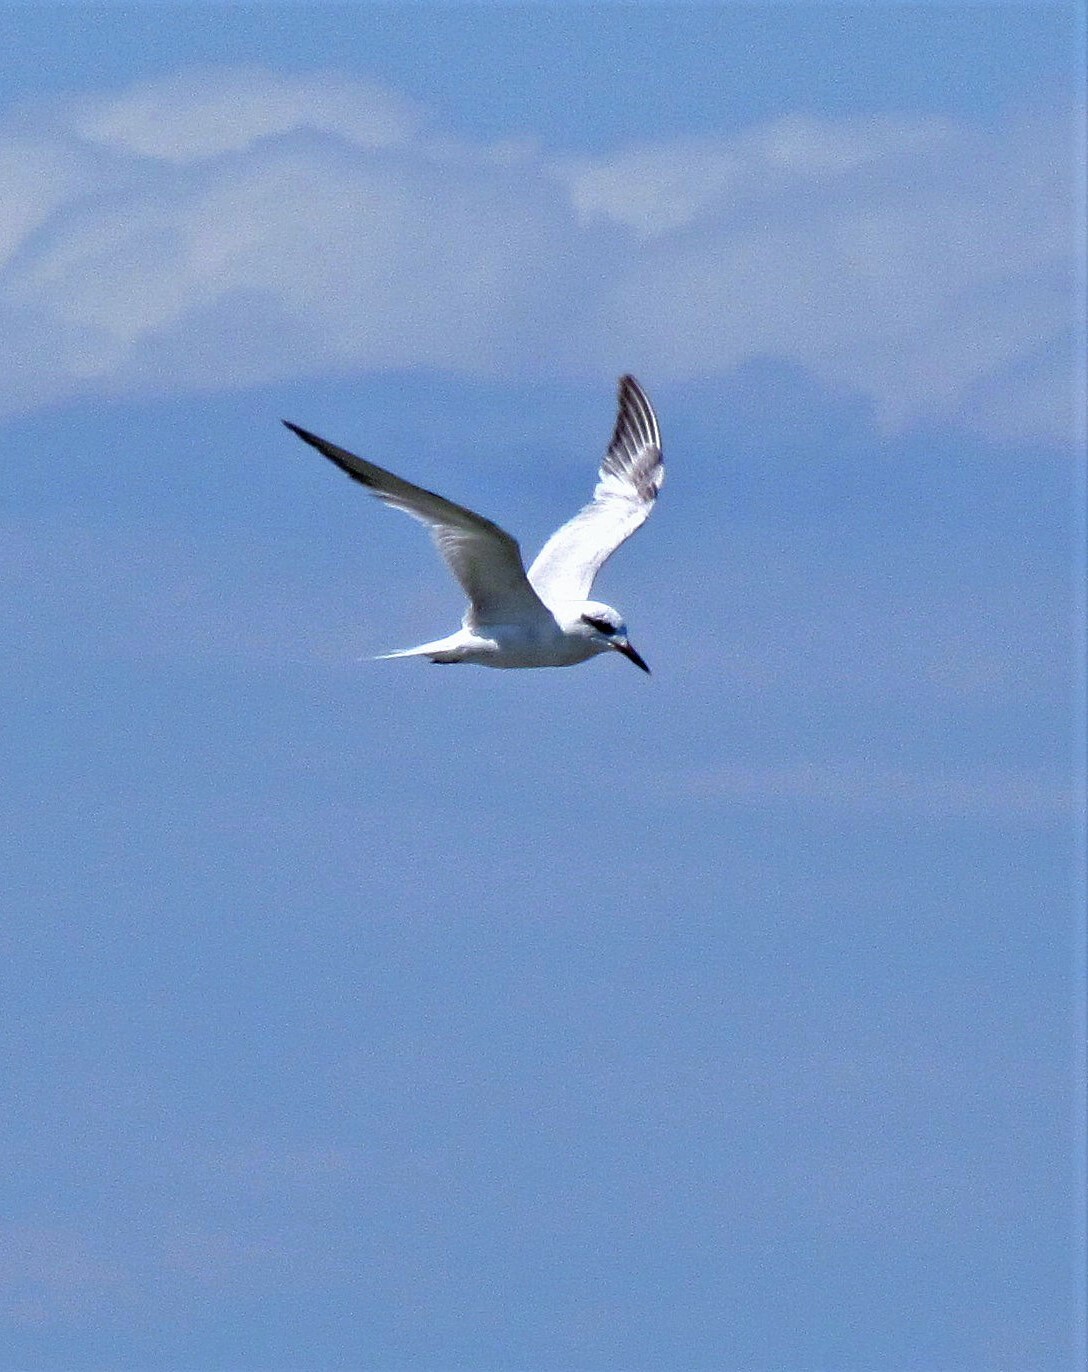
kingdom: Animalia
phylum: Chordata
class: Aves
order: Charadriiformes
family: Laridae
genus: Sterna
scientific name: Sterna trudeaui
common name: Snowy-crowned tern
